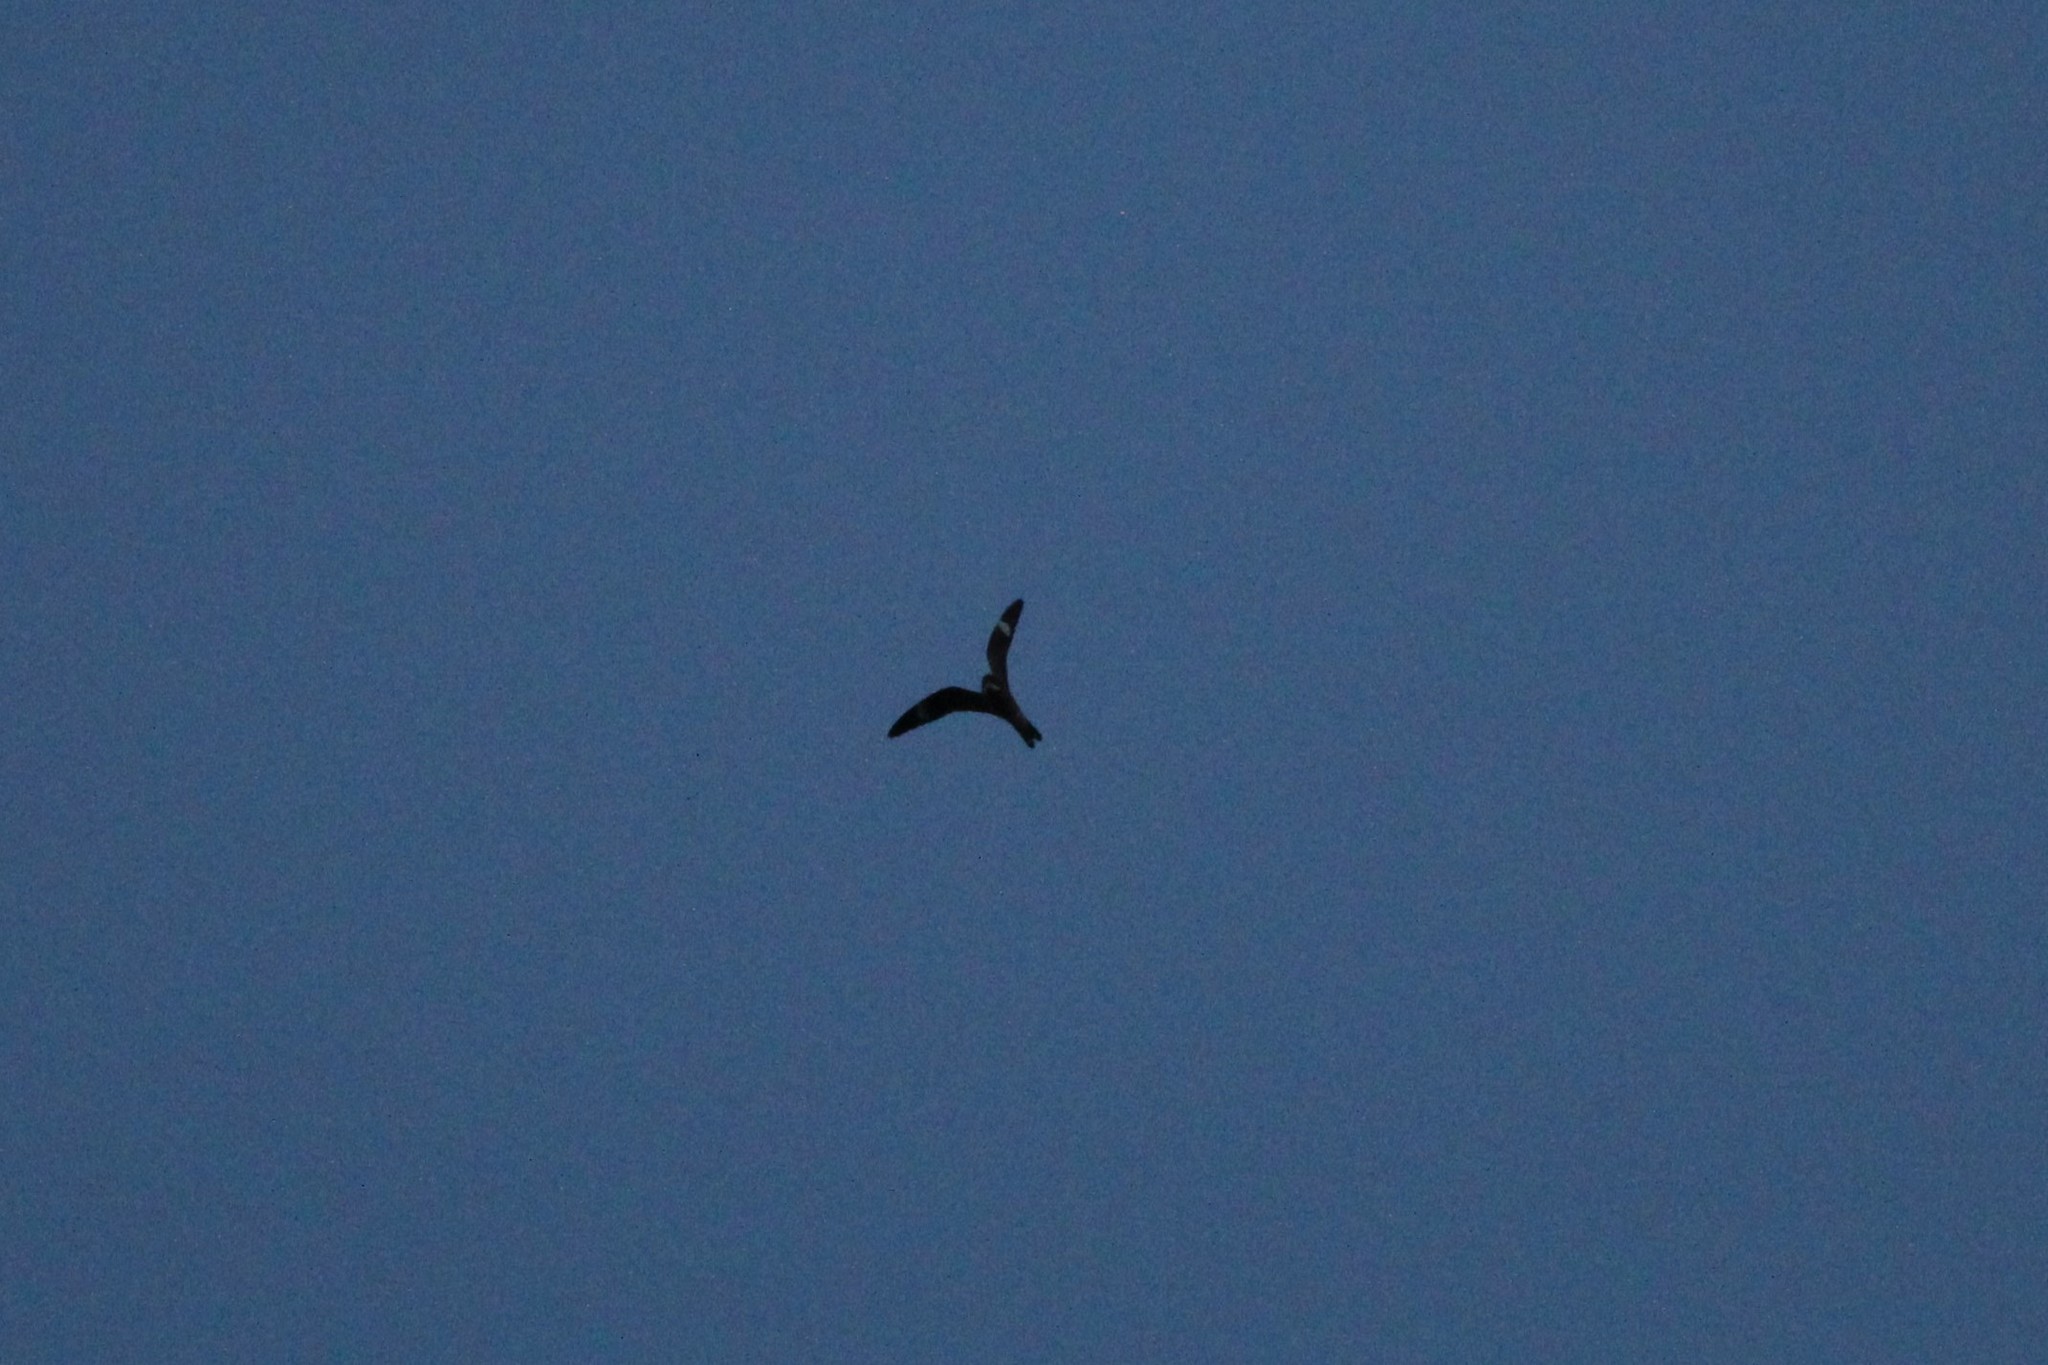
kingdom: Animalia
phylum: Chordata
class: Aves
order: Caprimulgiformes
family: Caprimulgidae
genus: Chordeiles
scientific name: Chordeiles minor
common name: Common nighthawk
